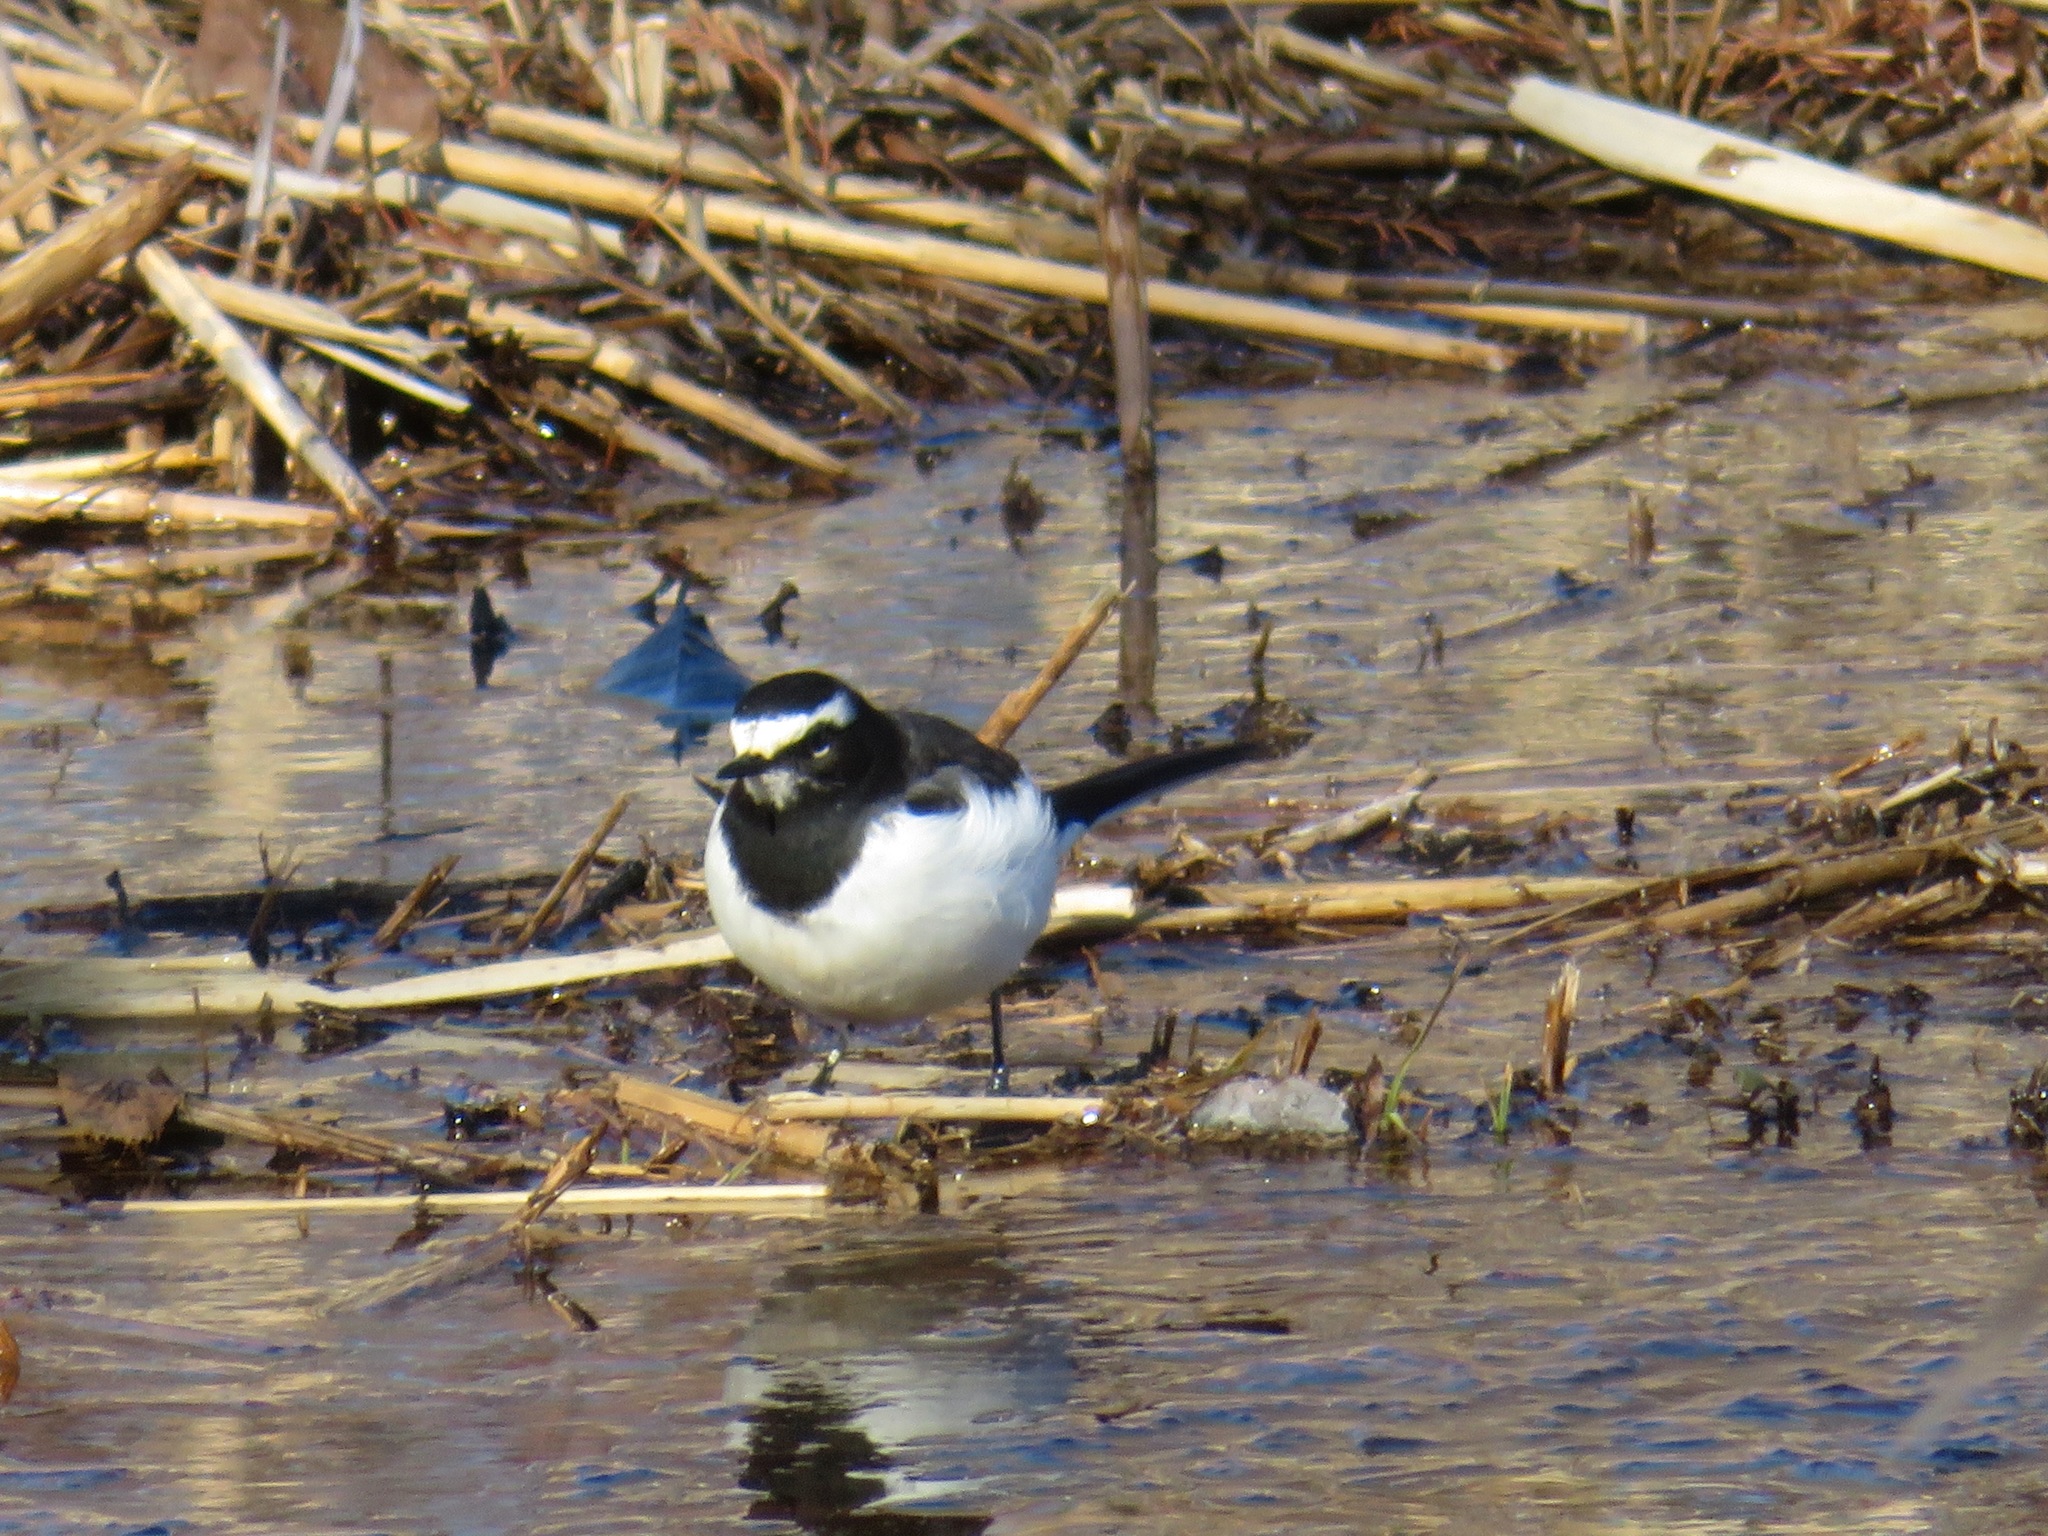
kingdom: Animalia
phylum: Chordata
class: Aves
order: Passeriformes
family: Motacillidae
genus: Motacilla
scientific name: Motacilla grandis
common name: Japanese wagtail
